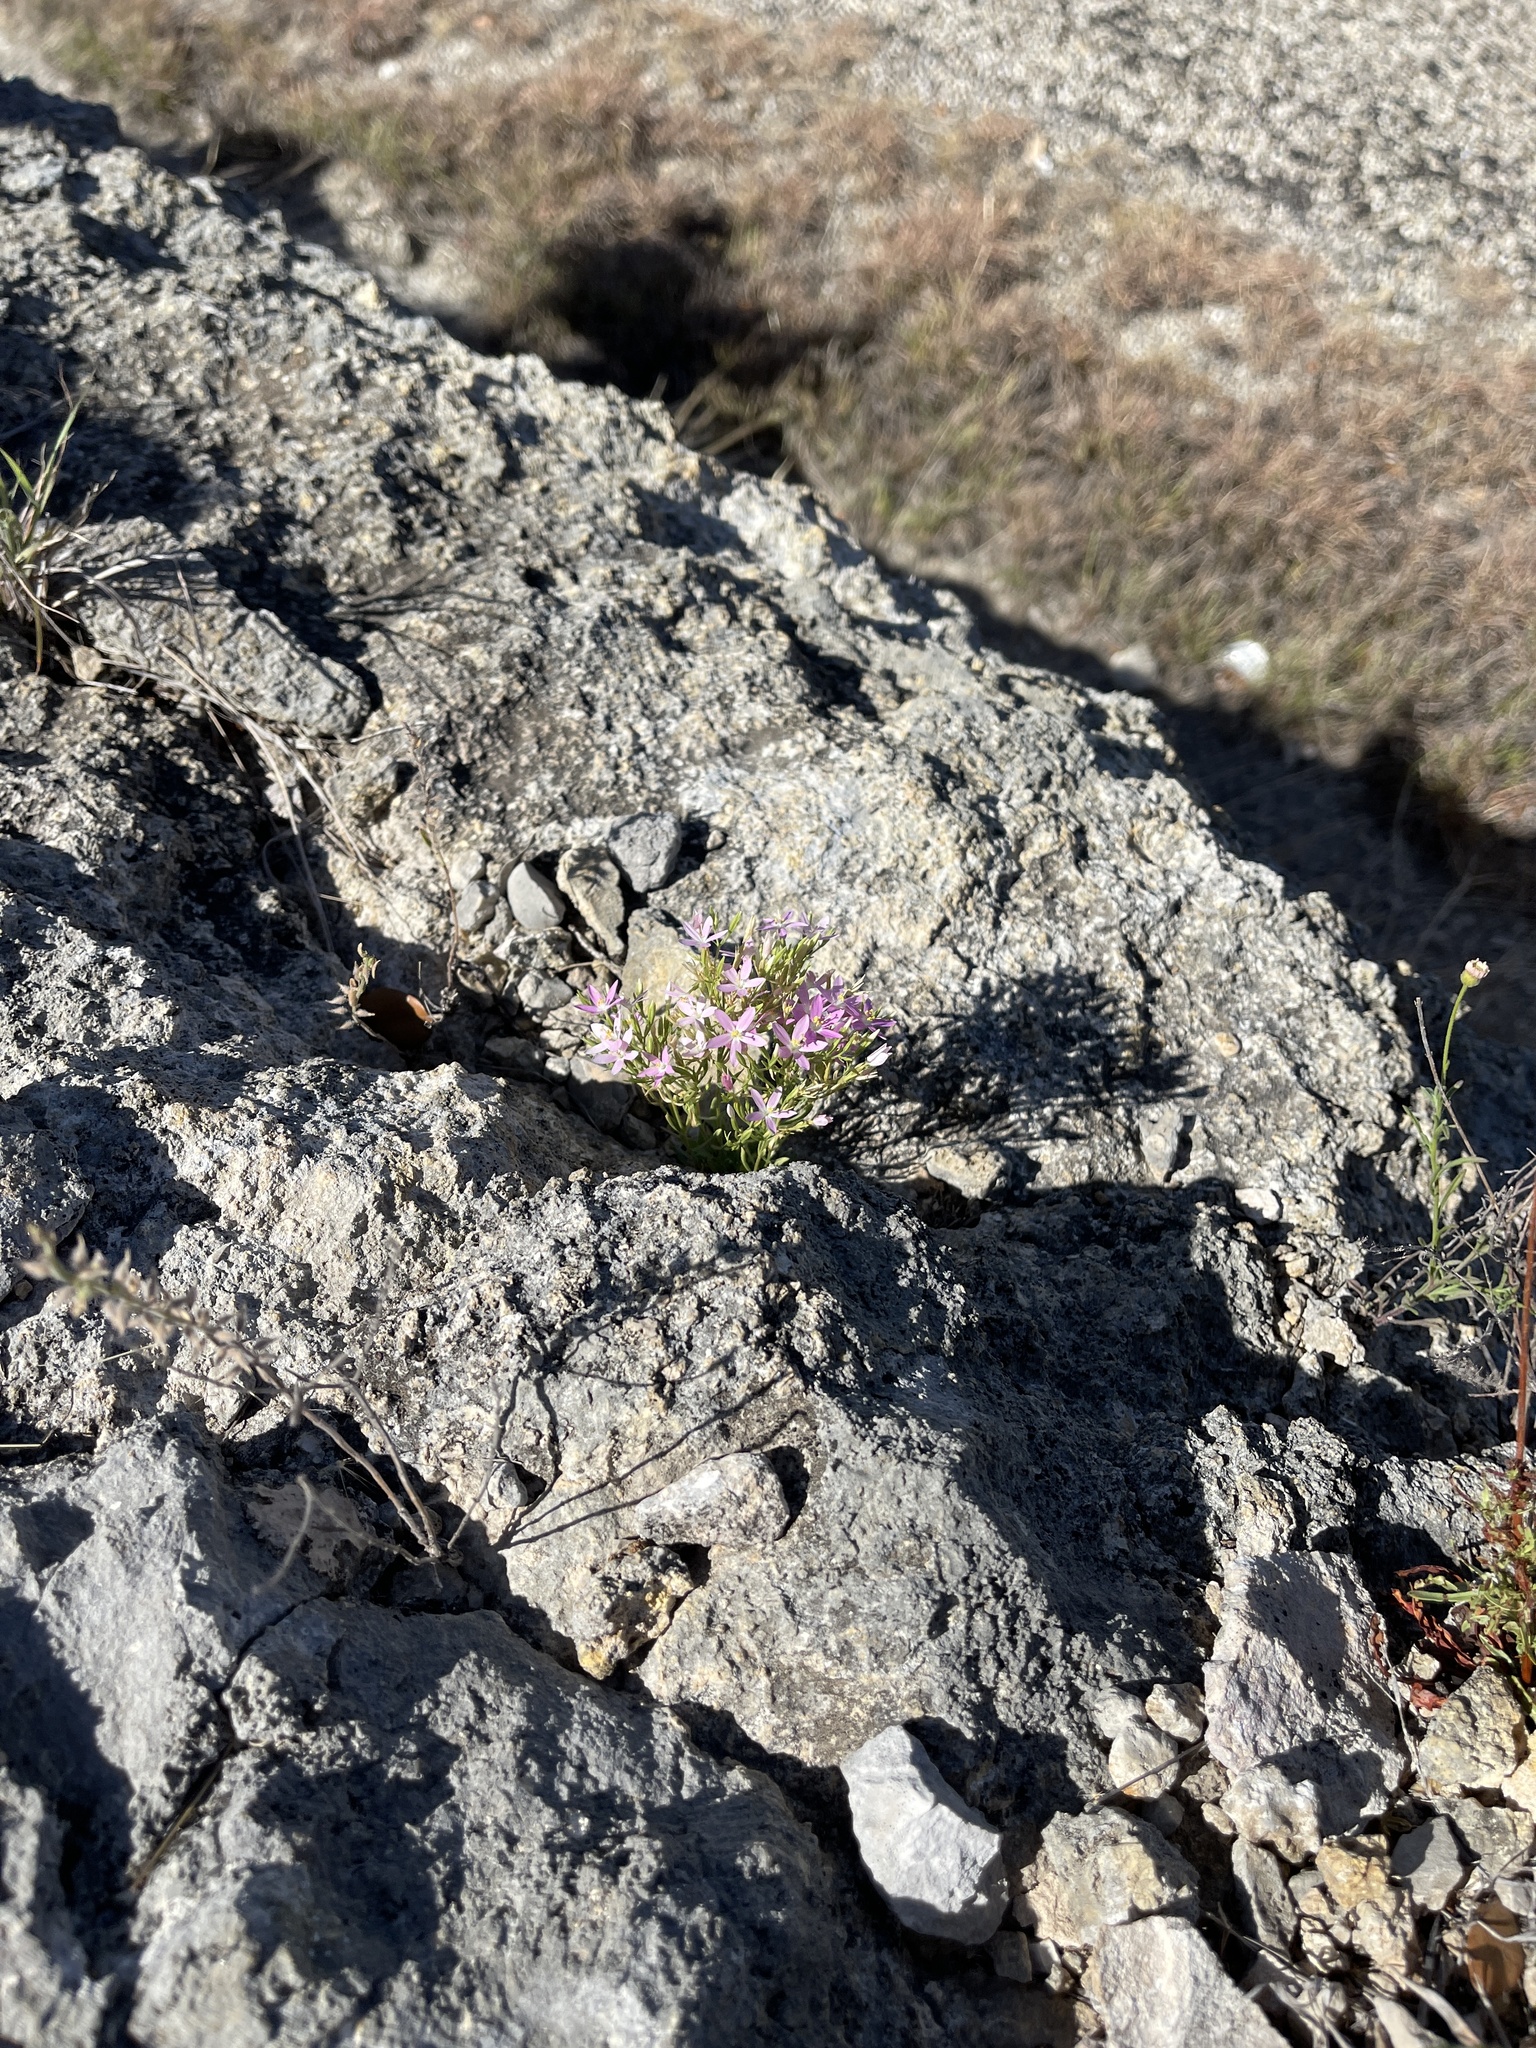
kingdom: Plantae
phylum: Tracheophyta
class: Magnoliopsida
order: Gentianales
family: Gentianaceae
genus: Zeltnera
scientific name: Zeltnera calycosa
